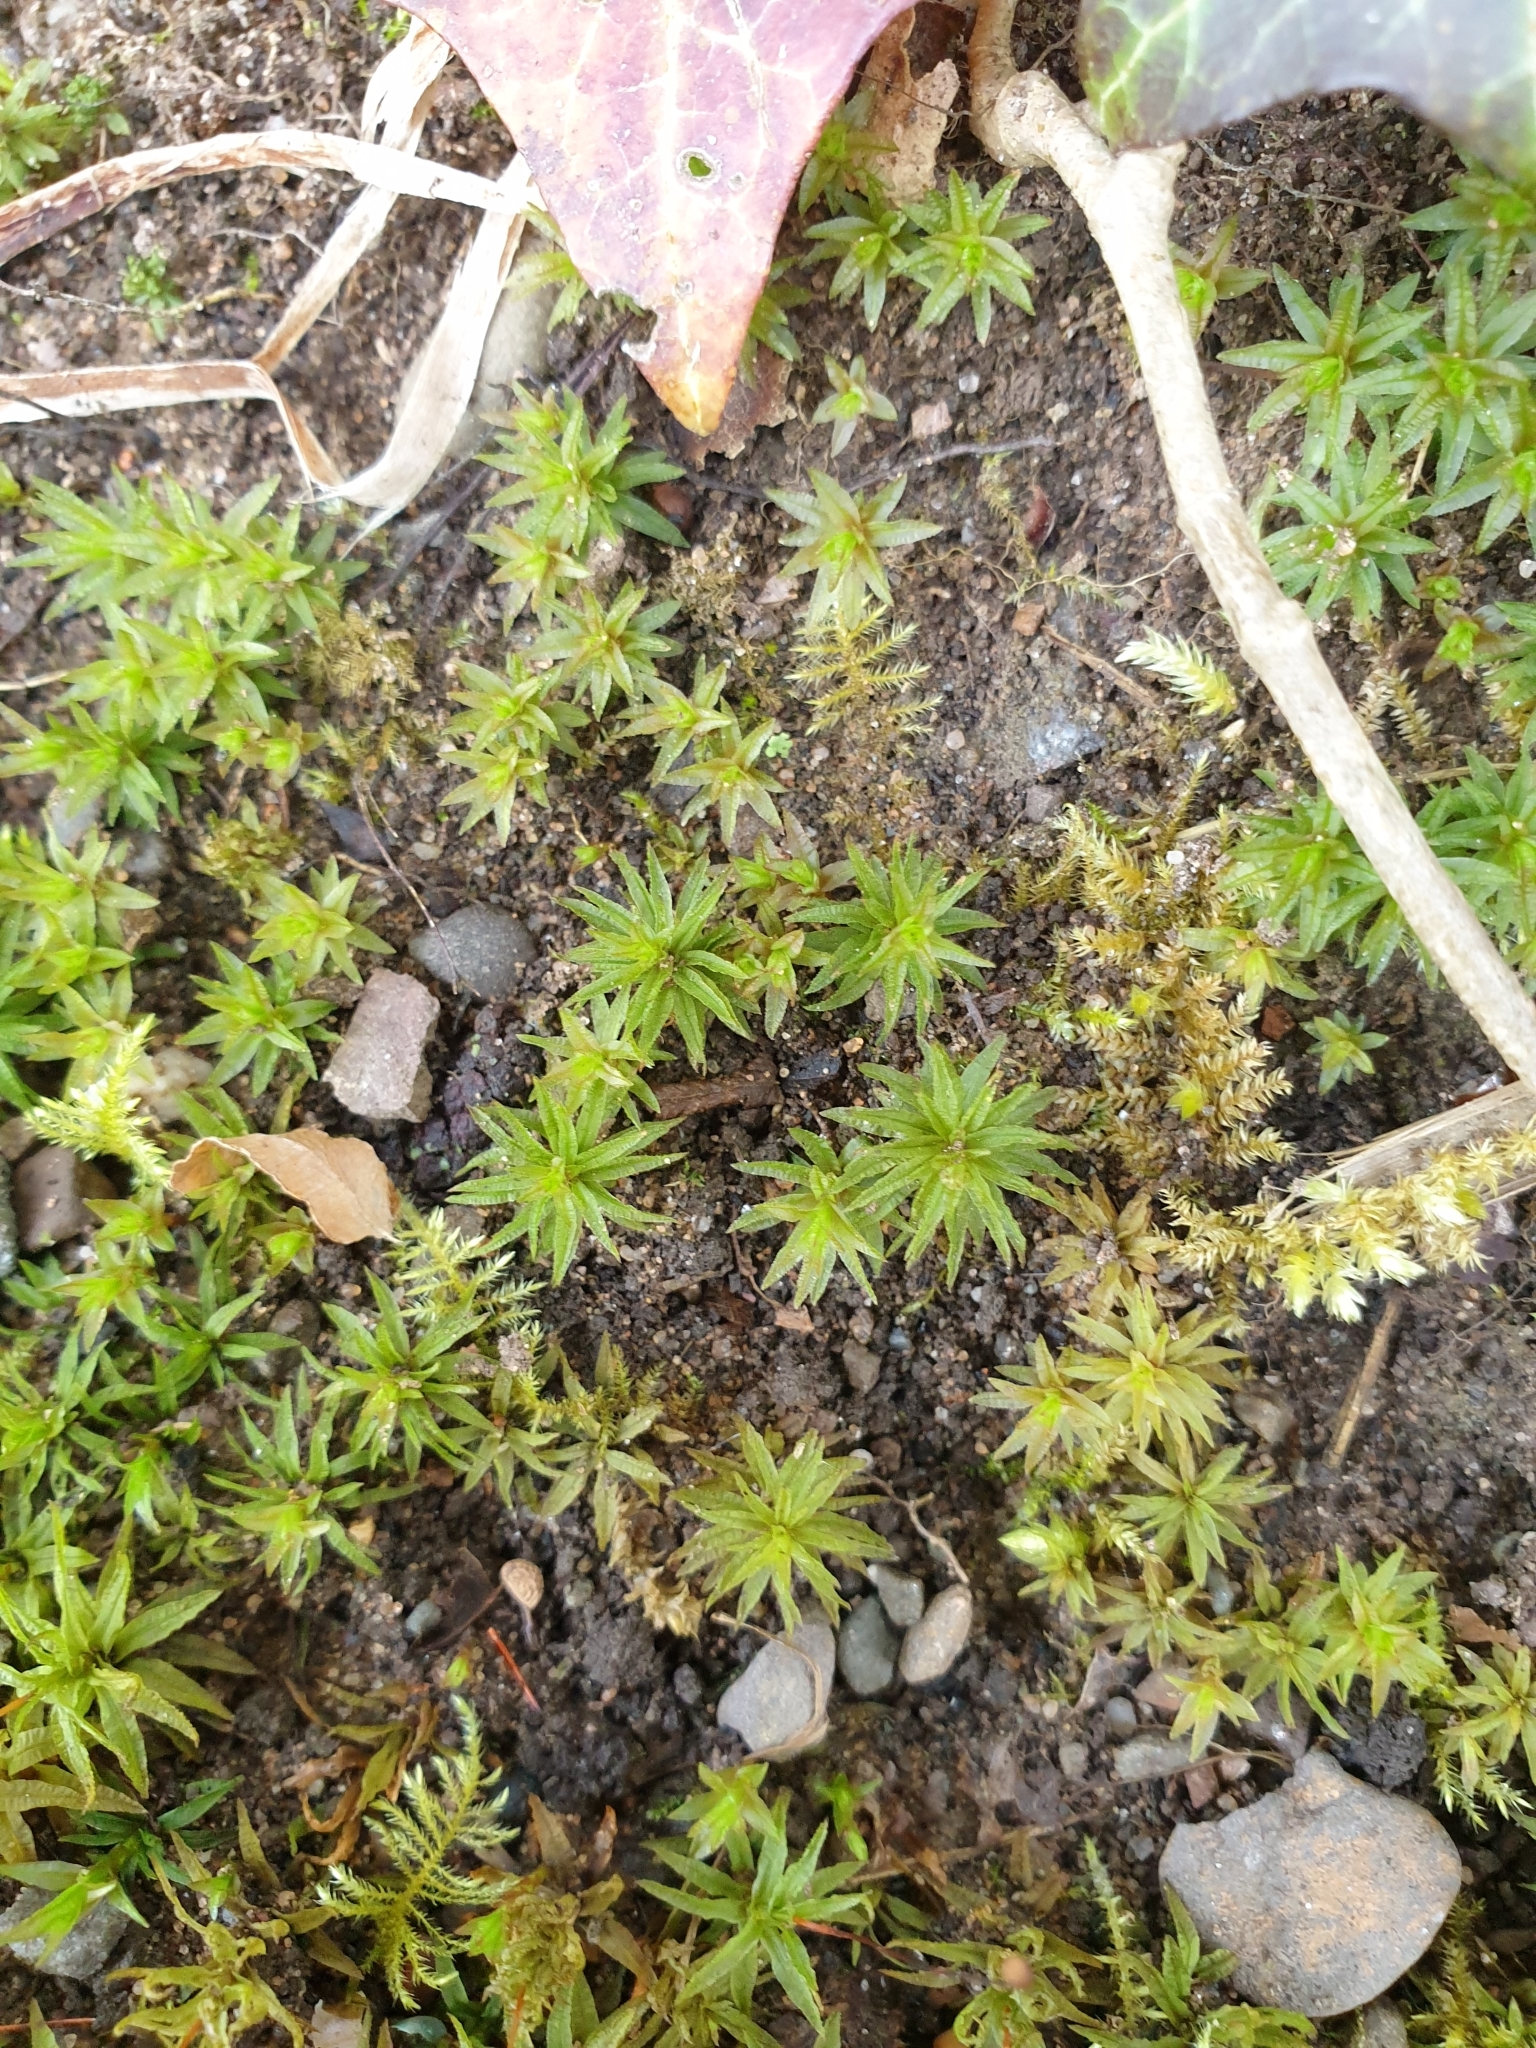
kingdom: Plantae
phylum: Bryophyta
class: Polytrichopsida
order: Polytrichales
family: Polytrichaceae
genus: Atrichum
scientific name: Atrichum undulatum
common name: Common smoothcap
